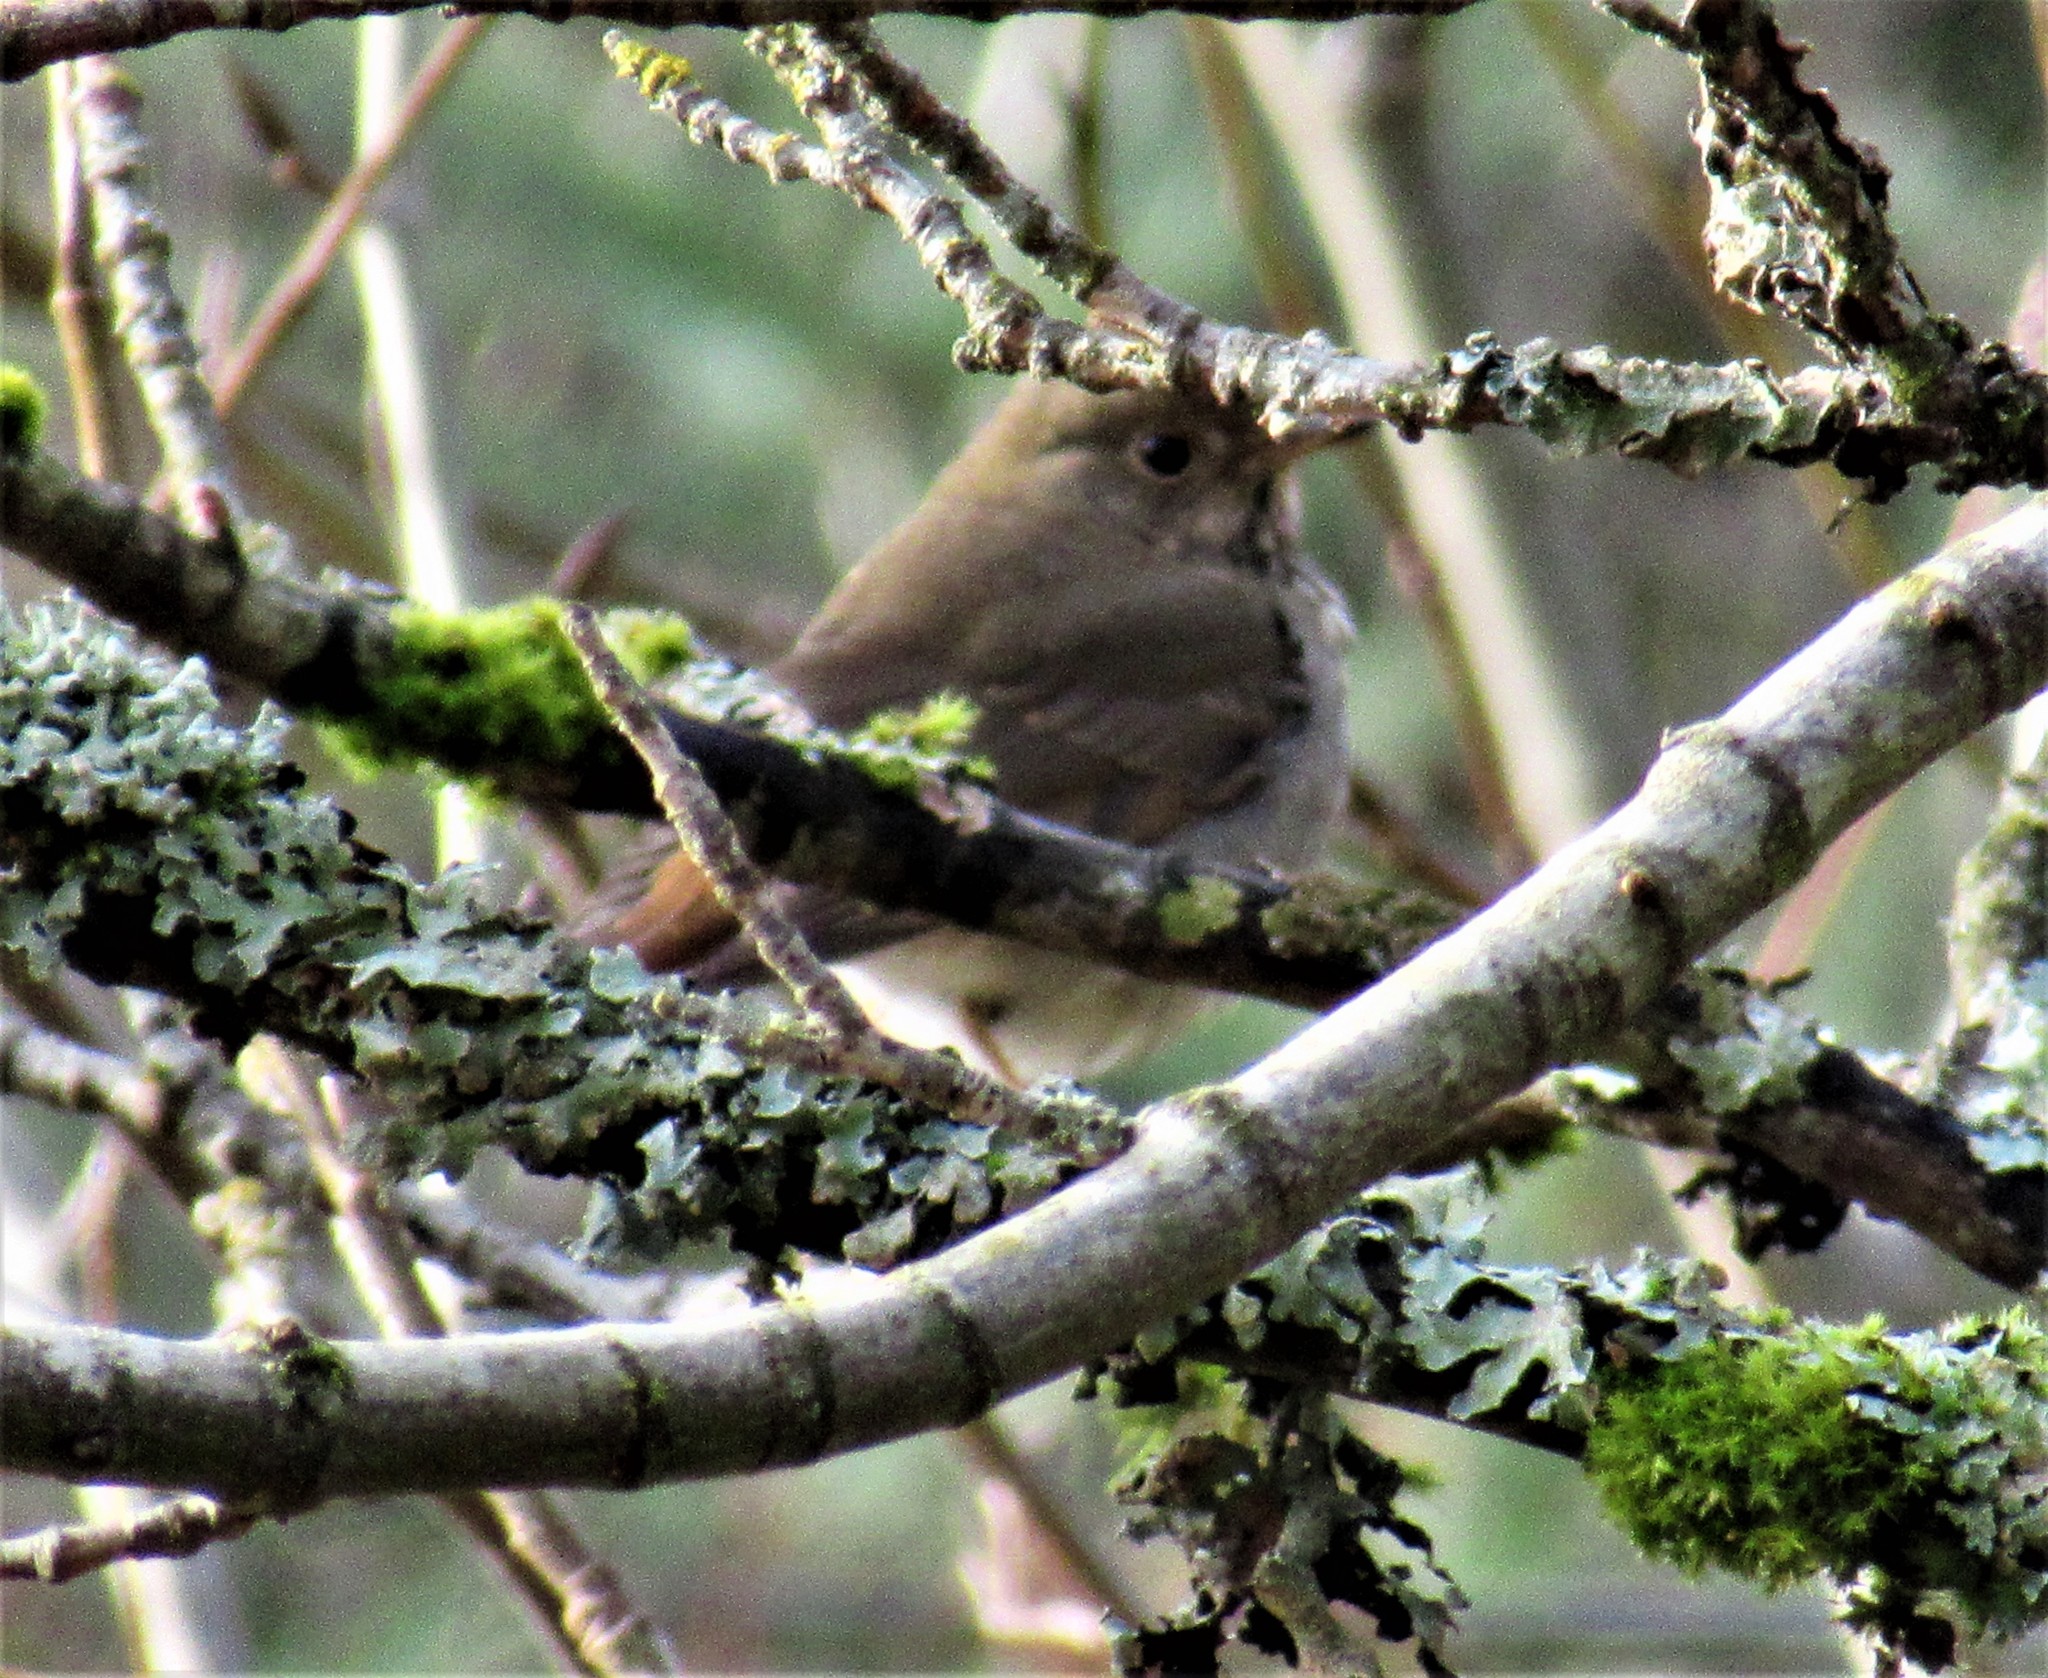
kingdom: Animalia
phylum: Chordata
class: Aves
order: Passeriformes
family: Turdidae
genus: Catharus
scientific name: Catharus guttatus
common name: Hermit thrush
